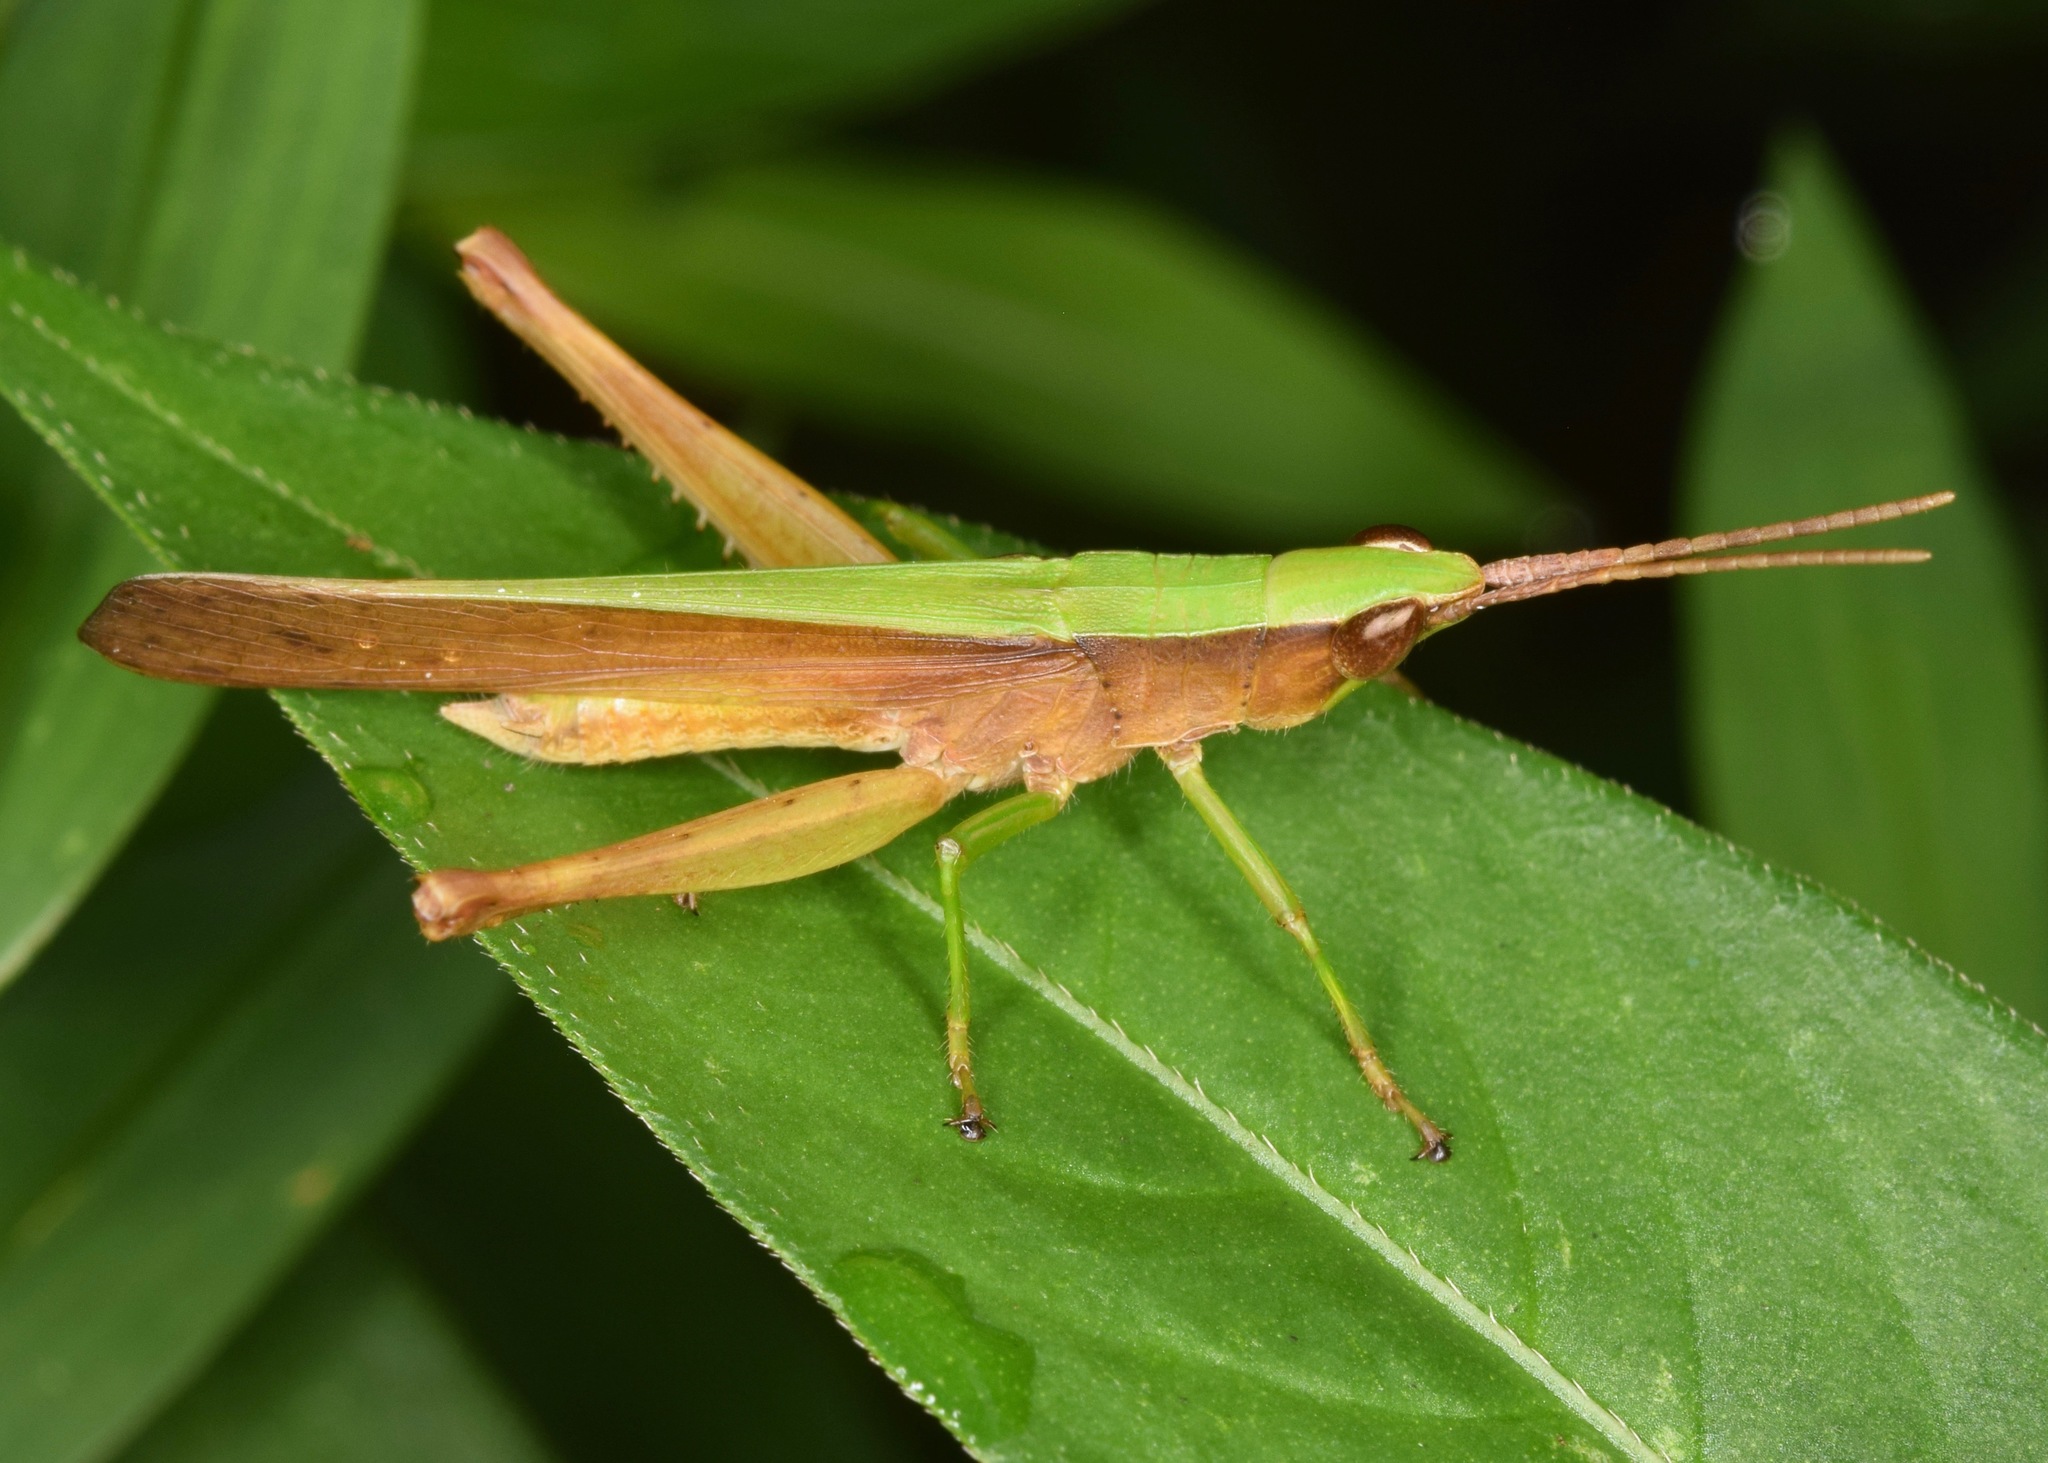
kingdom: Animalia
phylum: Arthropoda
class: Insecta
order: Orthoptera
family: Acrididae
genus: Metaleptea
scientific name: Metaleptea brevicornis
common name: Clipped-wing grasshopper
